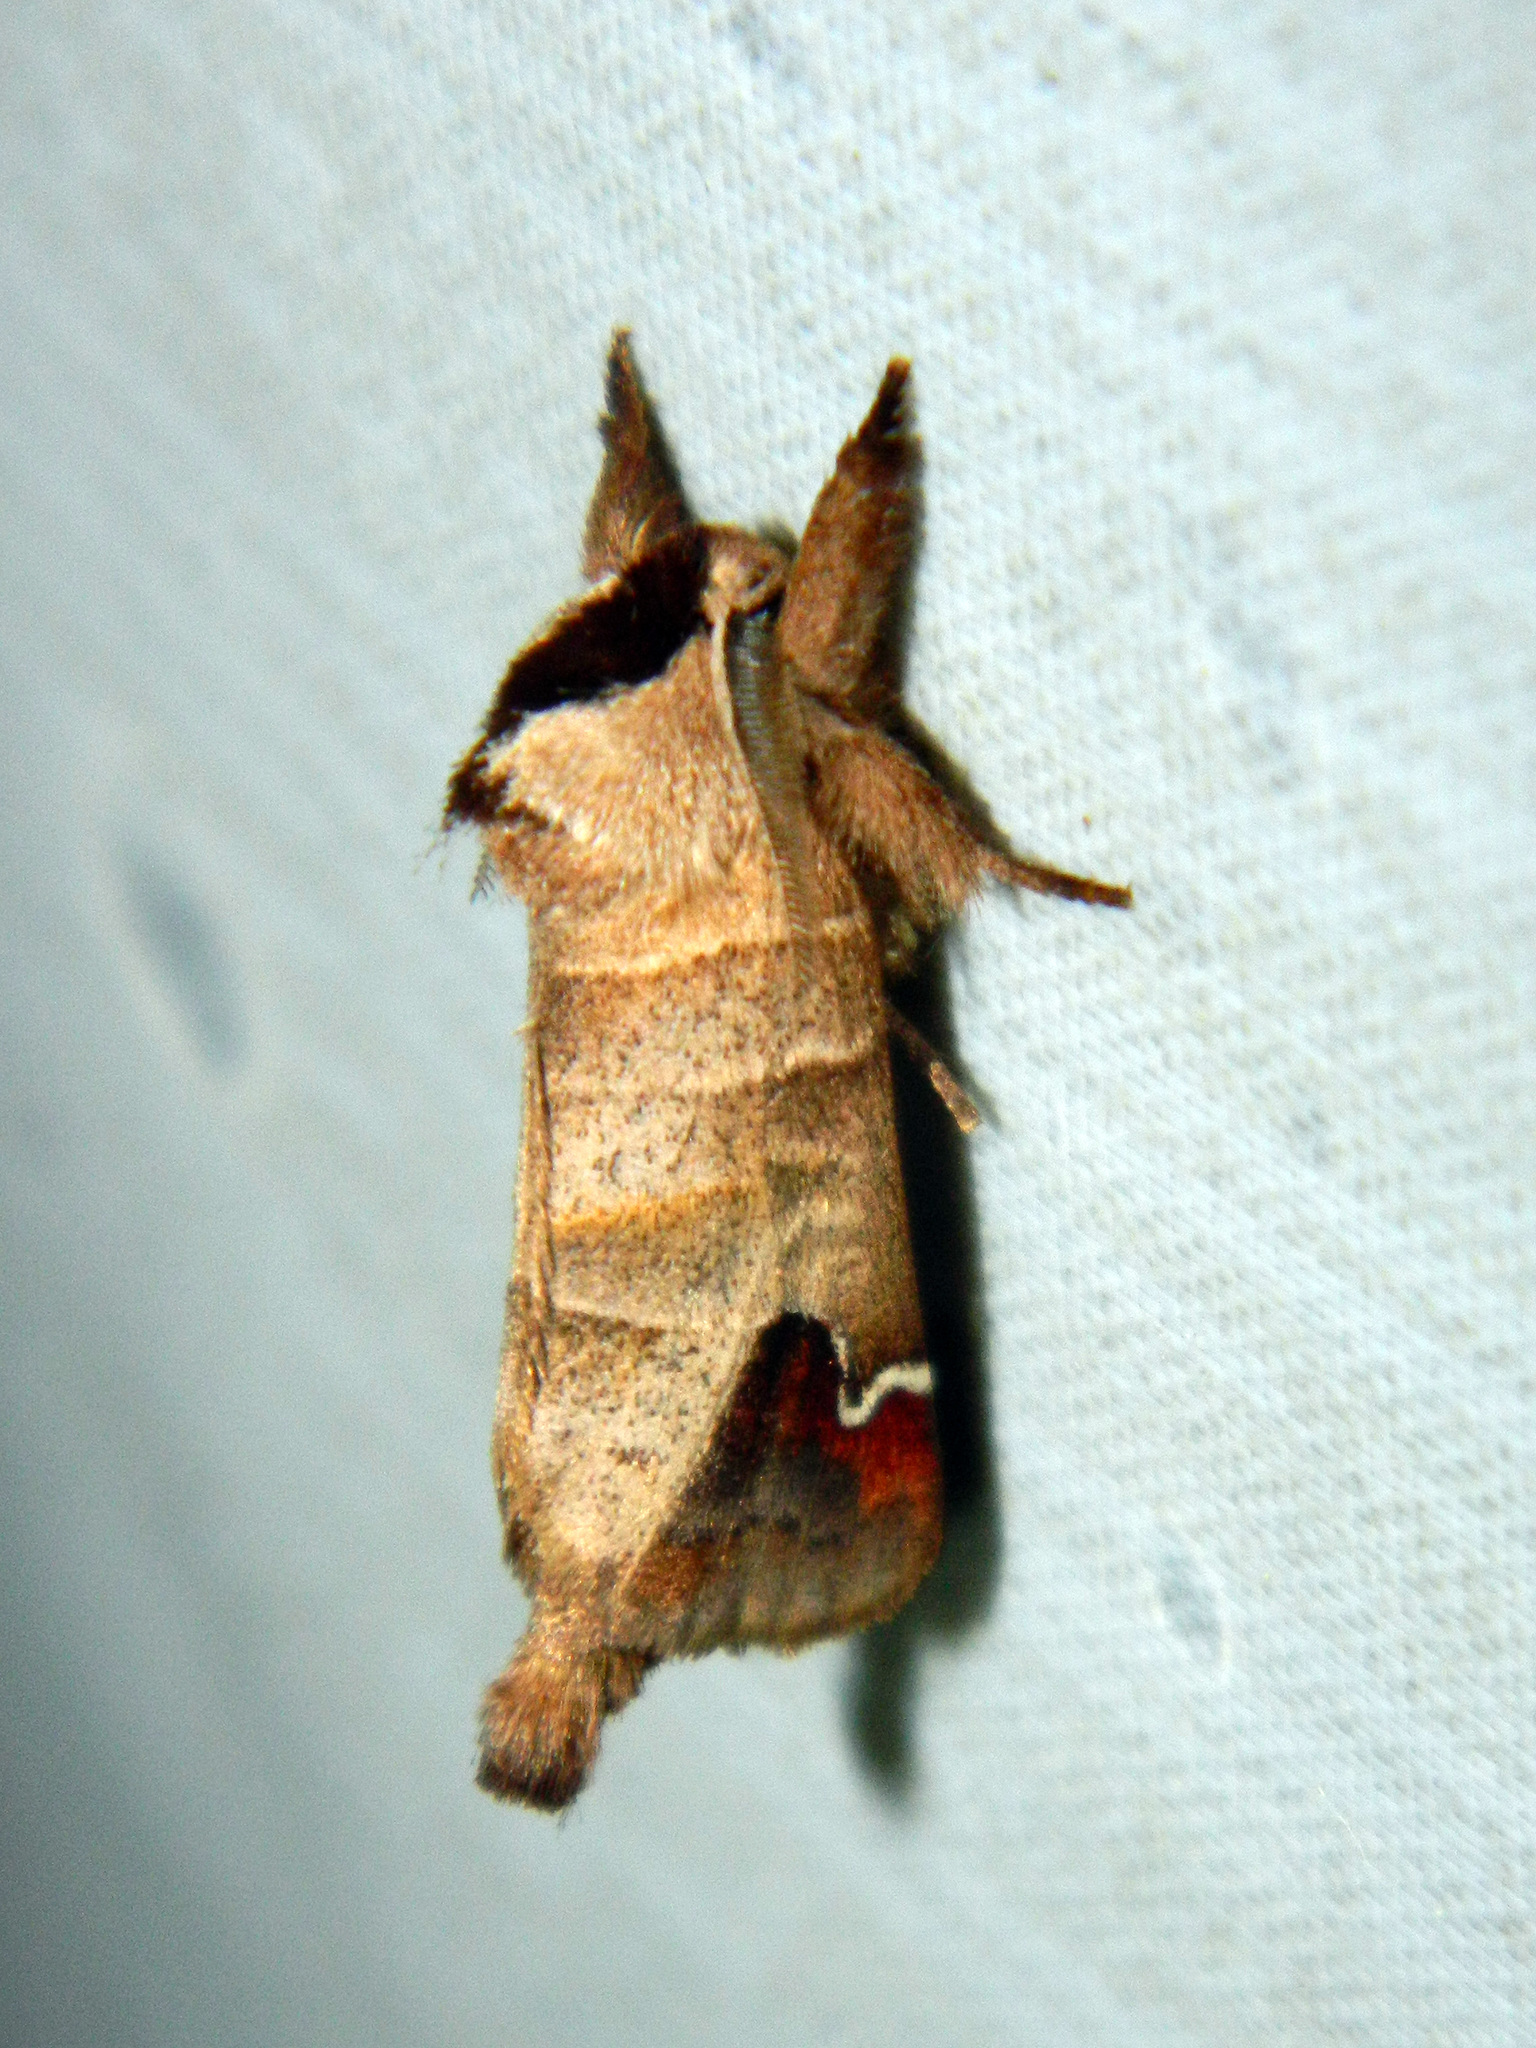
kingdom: Animalia
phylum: Arthropoda
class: Insecta
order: Lepidoptera
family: Notodontidae
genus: Clostera
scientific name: Clostera albosigma
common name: Sigmoid prominent
